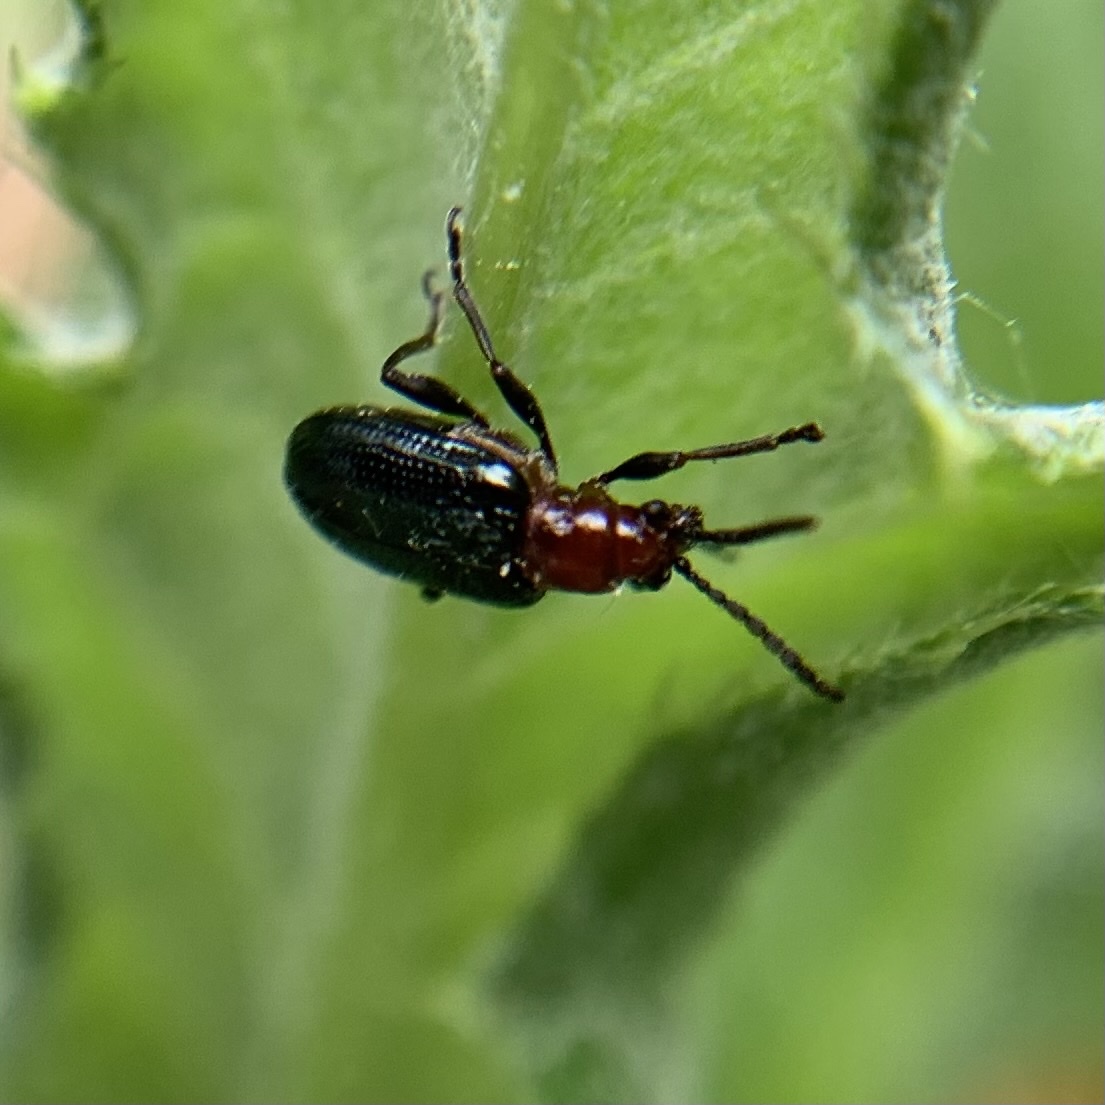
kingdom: Animalia
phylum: Arthropoda
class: Insecta
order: Coleoptera
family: Chrysomelidae
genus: Oulema
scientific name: Oulema melanopus
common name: Cereal leaf beetle
